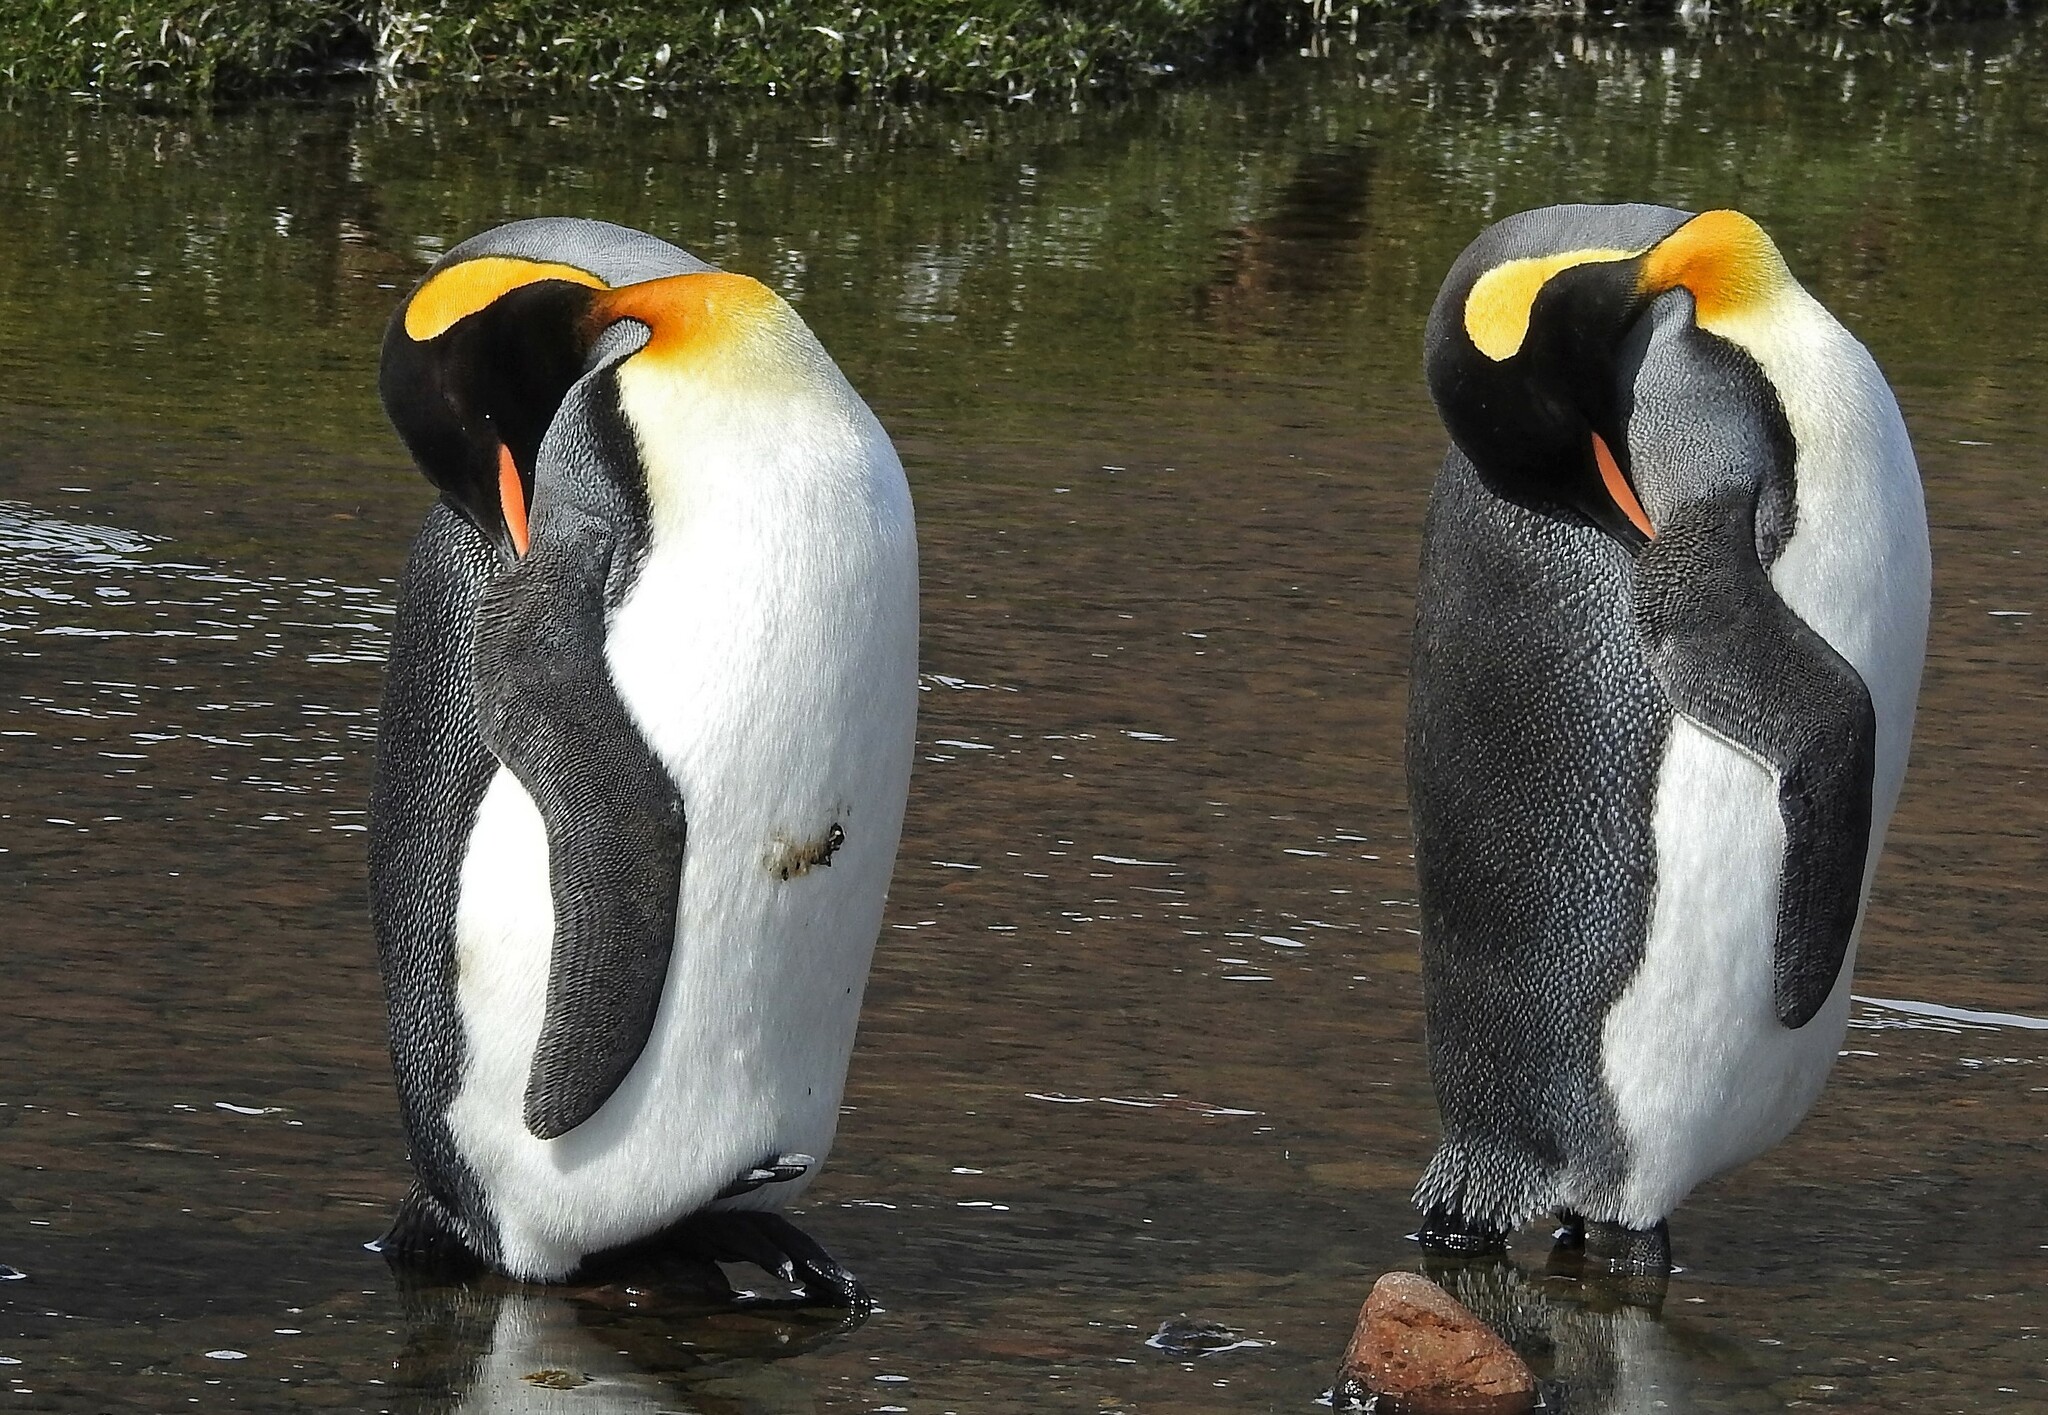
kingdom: Animalia
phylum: Chordata
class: Aves
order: Sphenisciformes
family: Spheniscidae
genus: Aptenodytes
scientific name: Aptenodytes patagonicus
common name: King penguin
